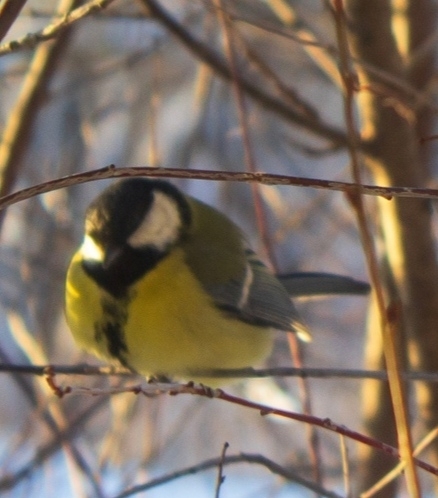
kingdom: Animalia
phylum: Chordata
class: Aves
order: Passeriformes
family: Paridae
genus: Parus
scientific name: Parus major
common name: Great tit
